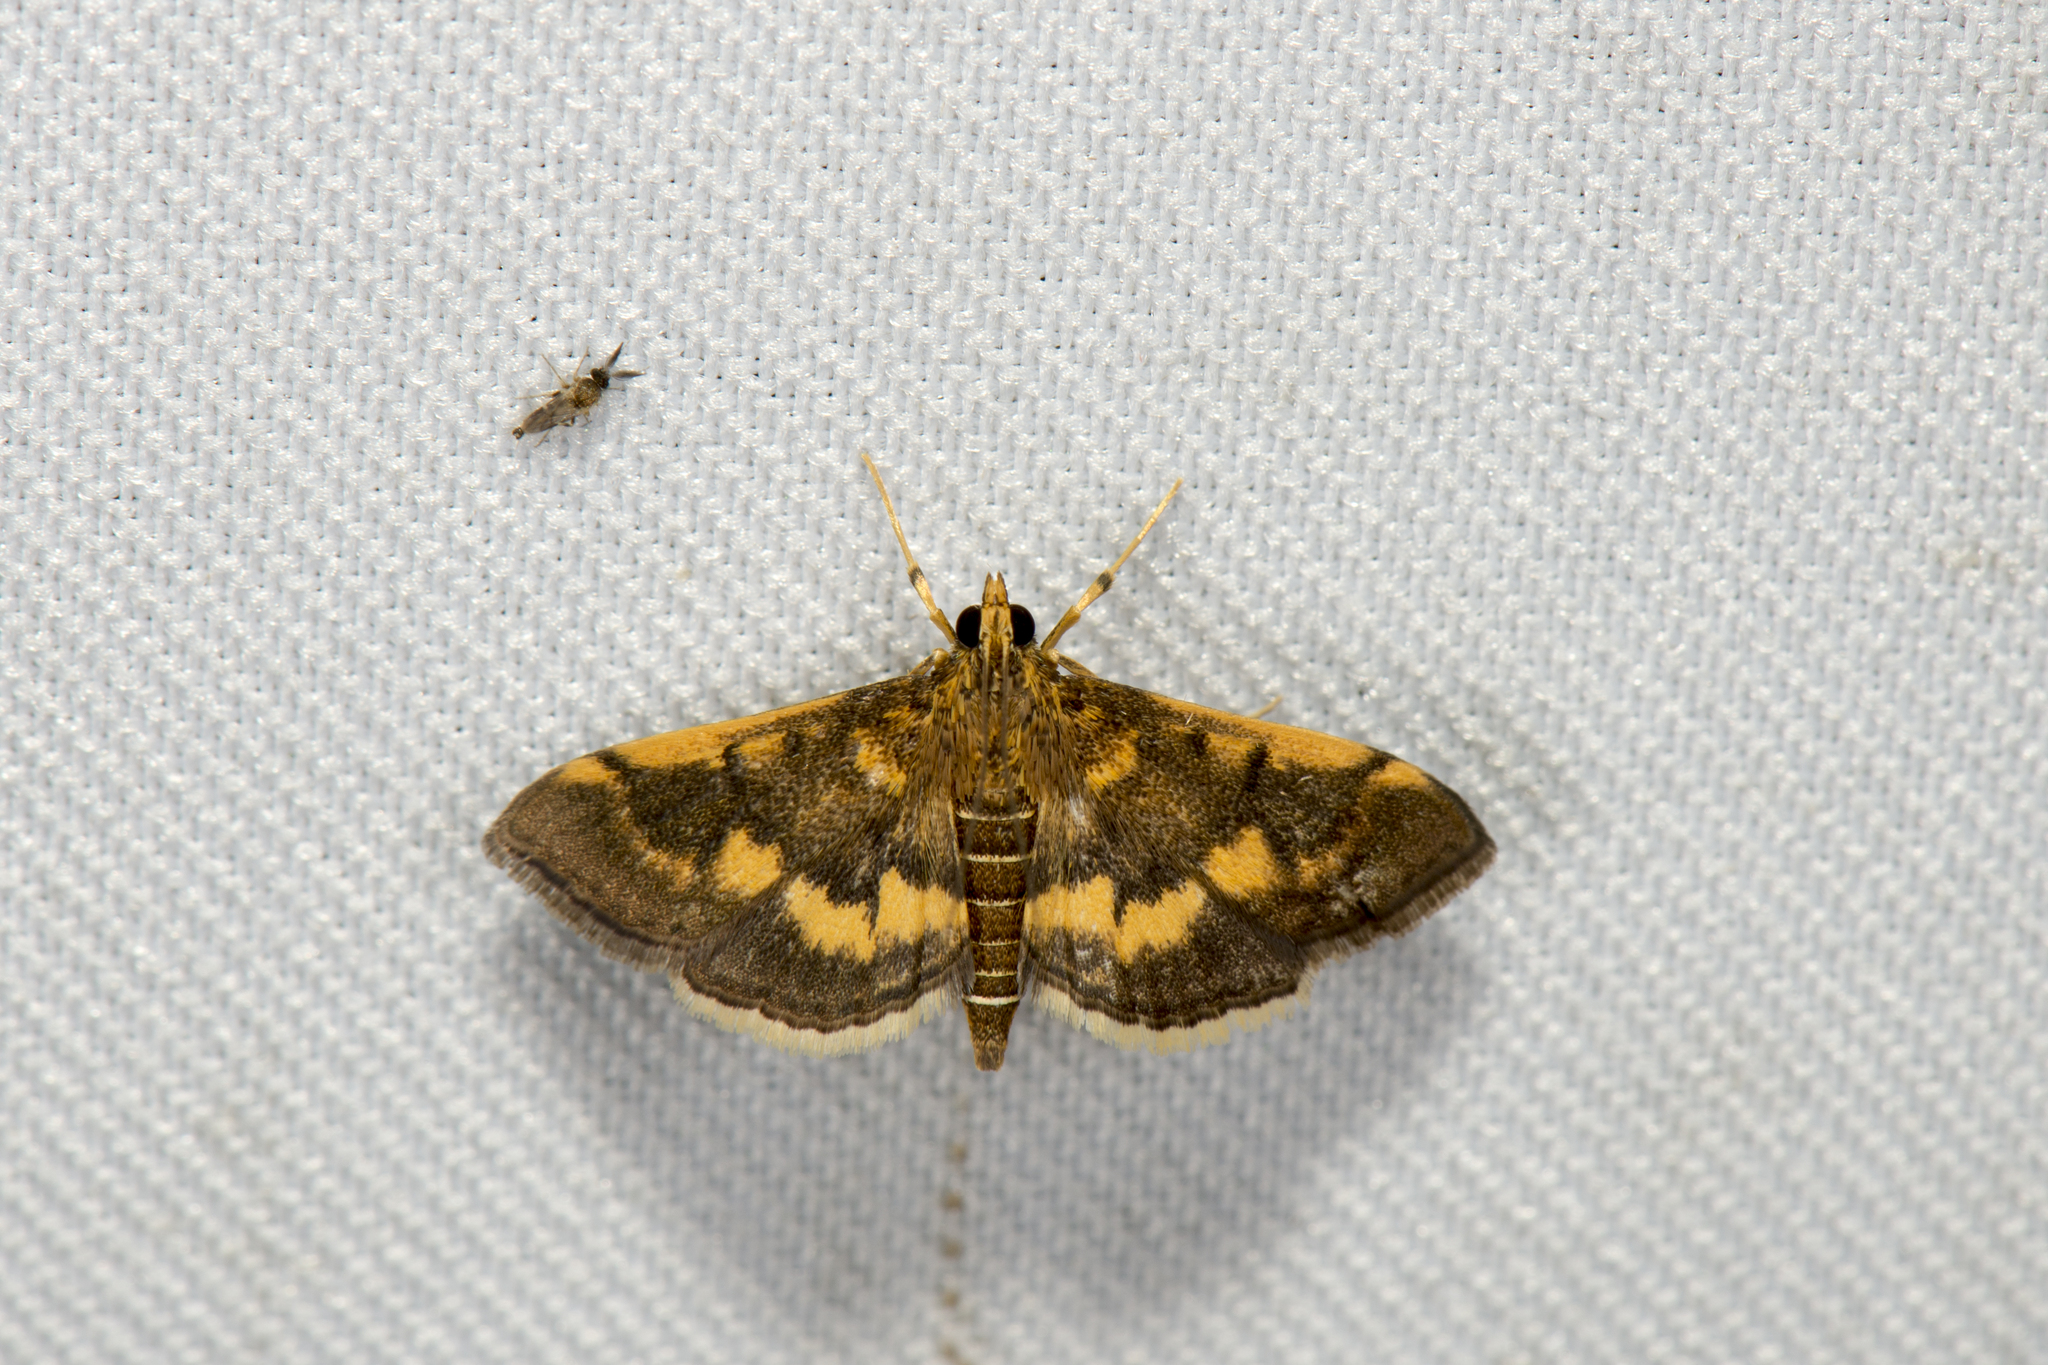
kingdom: Animalia
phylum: Arthropoda
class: Insecta
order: Lepidoptera
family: Crambidae
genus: Omiodes
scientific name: Omiodes diemenalis
